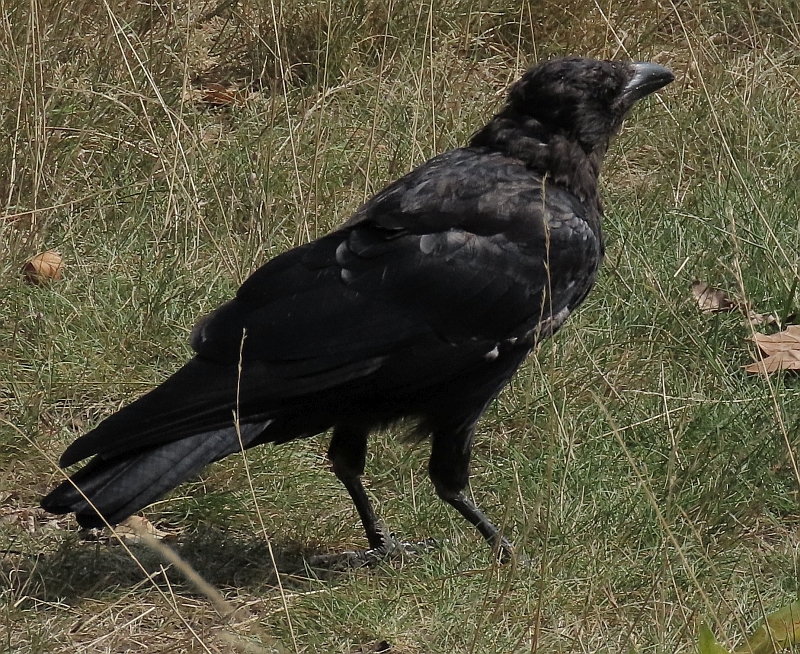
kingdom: Animalia
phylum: Chordata
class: Aves
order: Passeriformes
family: Corvidae
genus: Corvus
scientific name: Corvus corone
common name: Carrion crow
